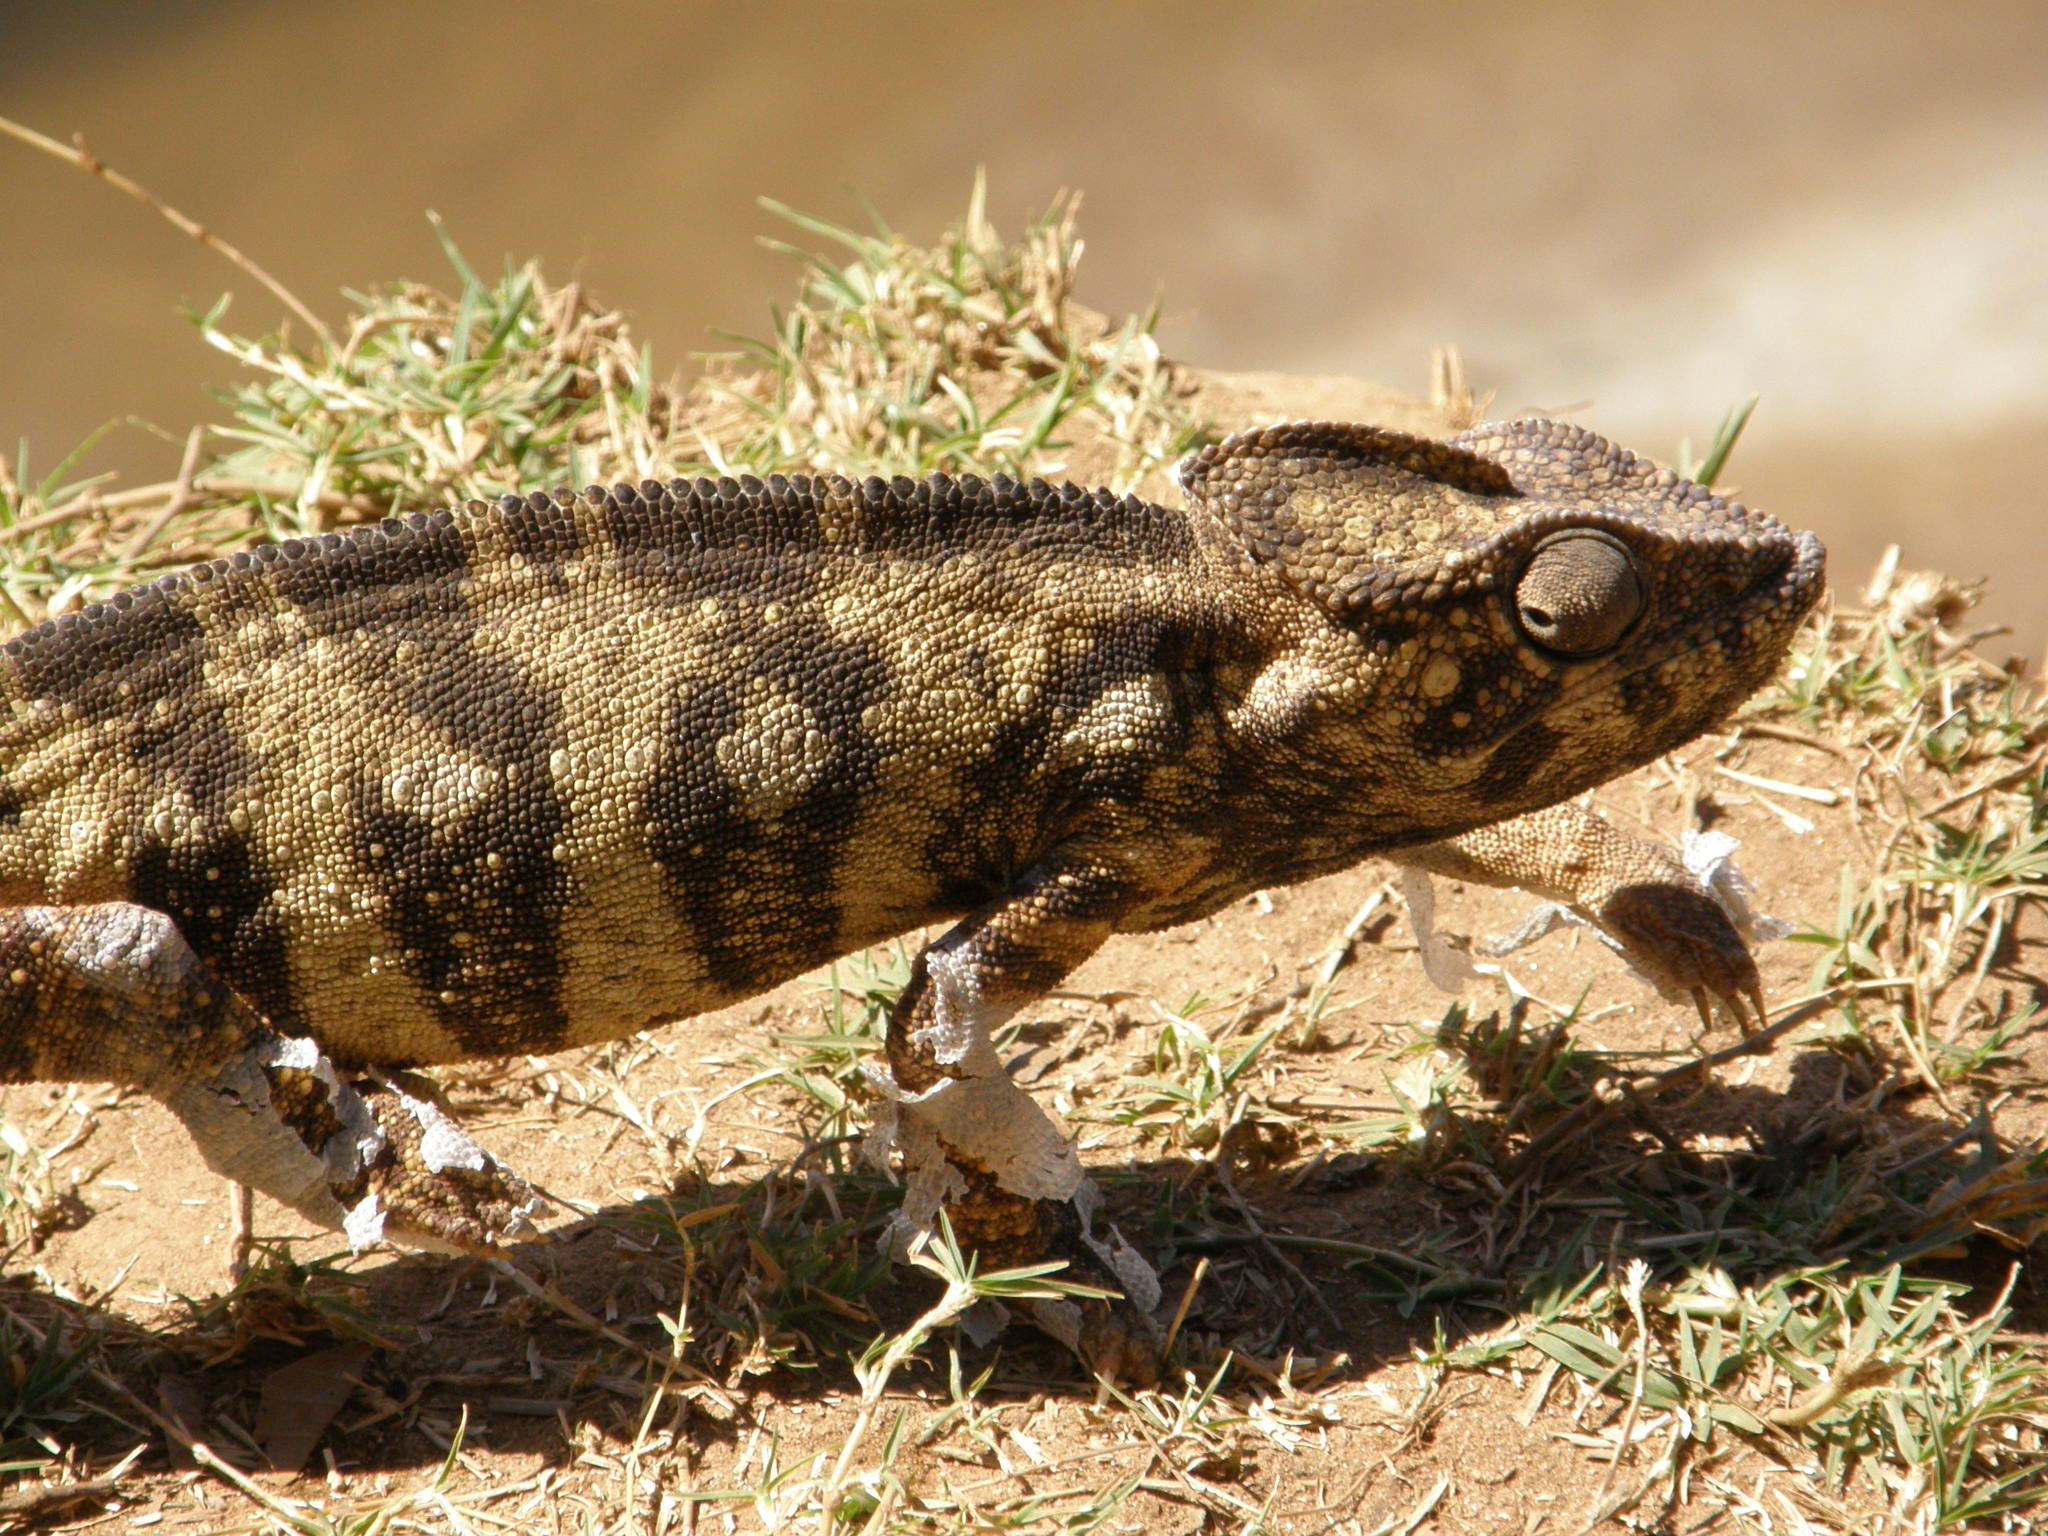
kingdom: Animalia
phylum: Chordata
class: Squamata
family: Chamaeleonidae
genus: Furcifer
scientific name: Furcifer oustaleti
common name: Oustalet's chameleon
